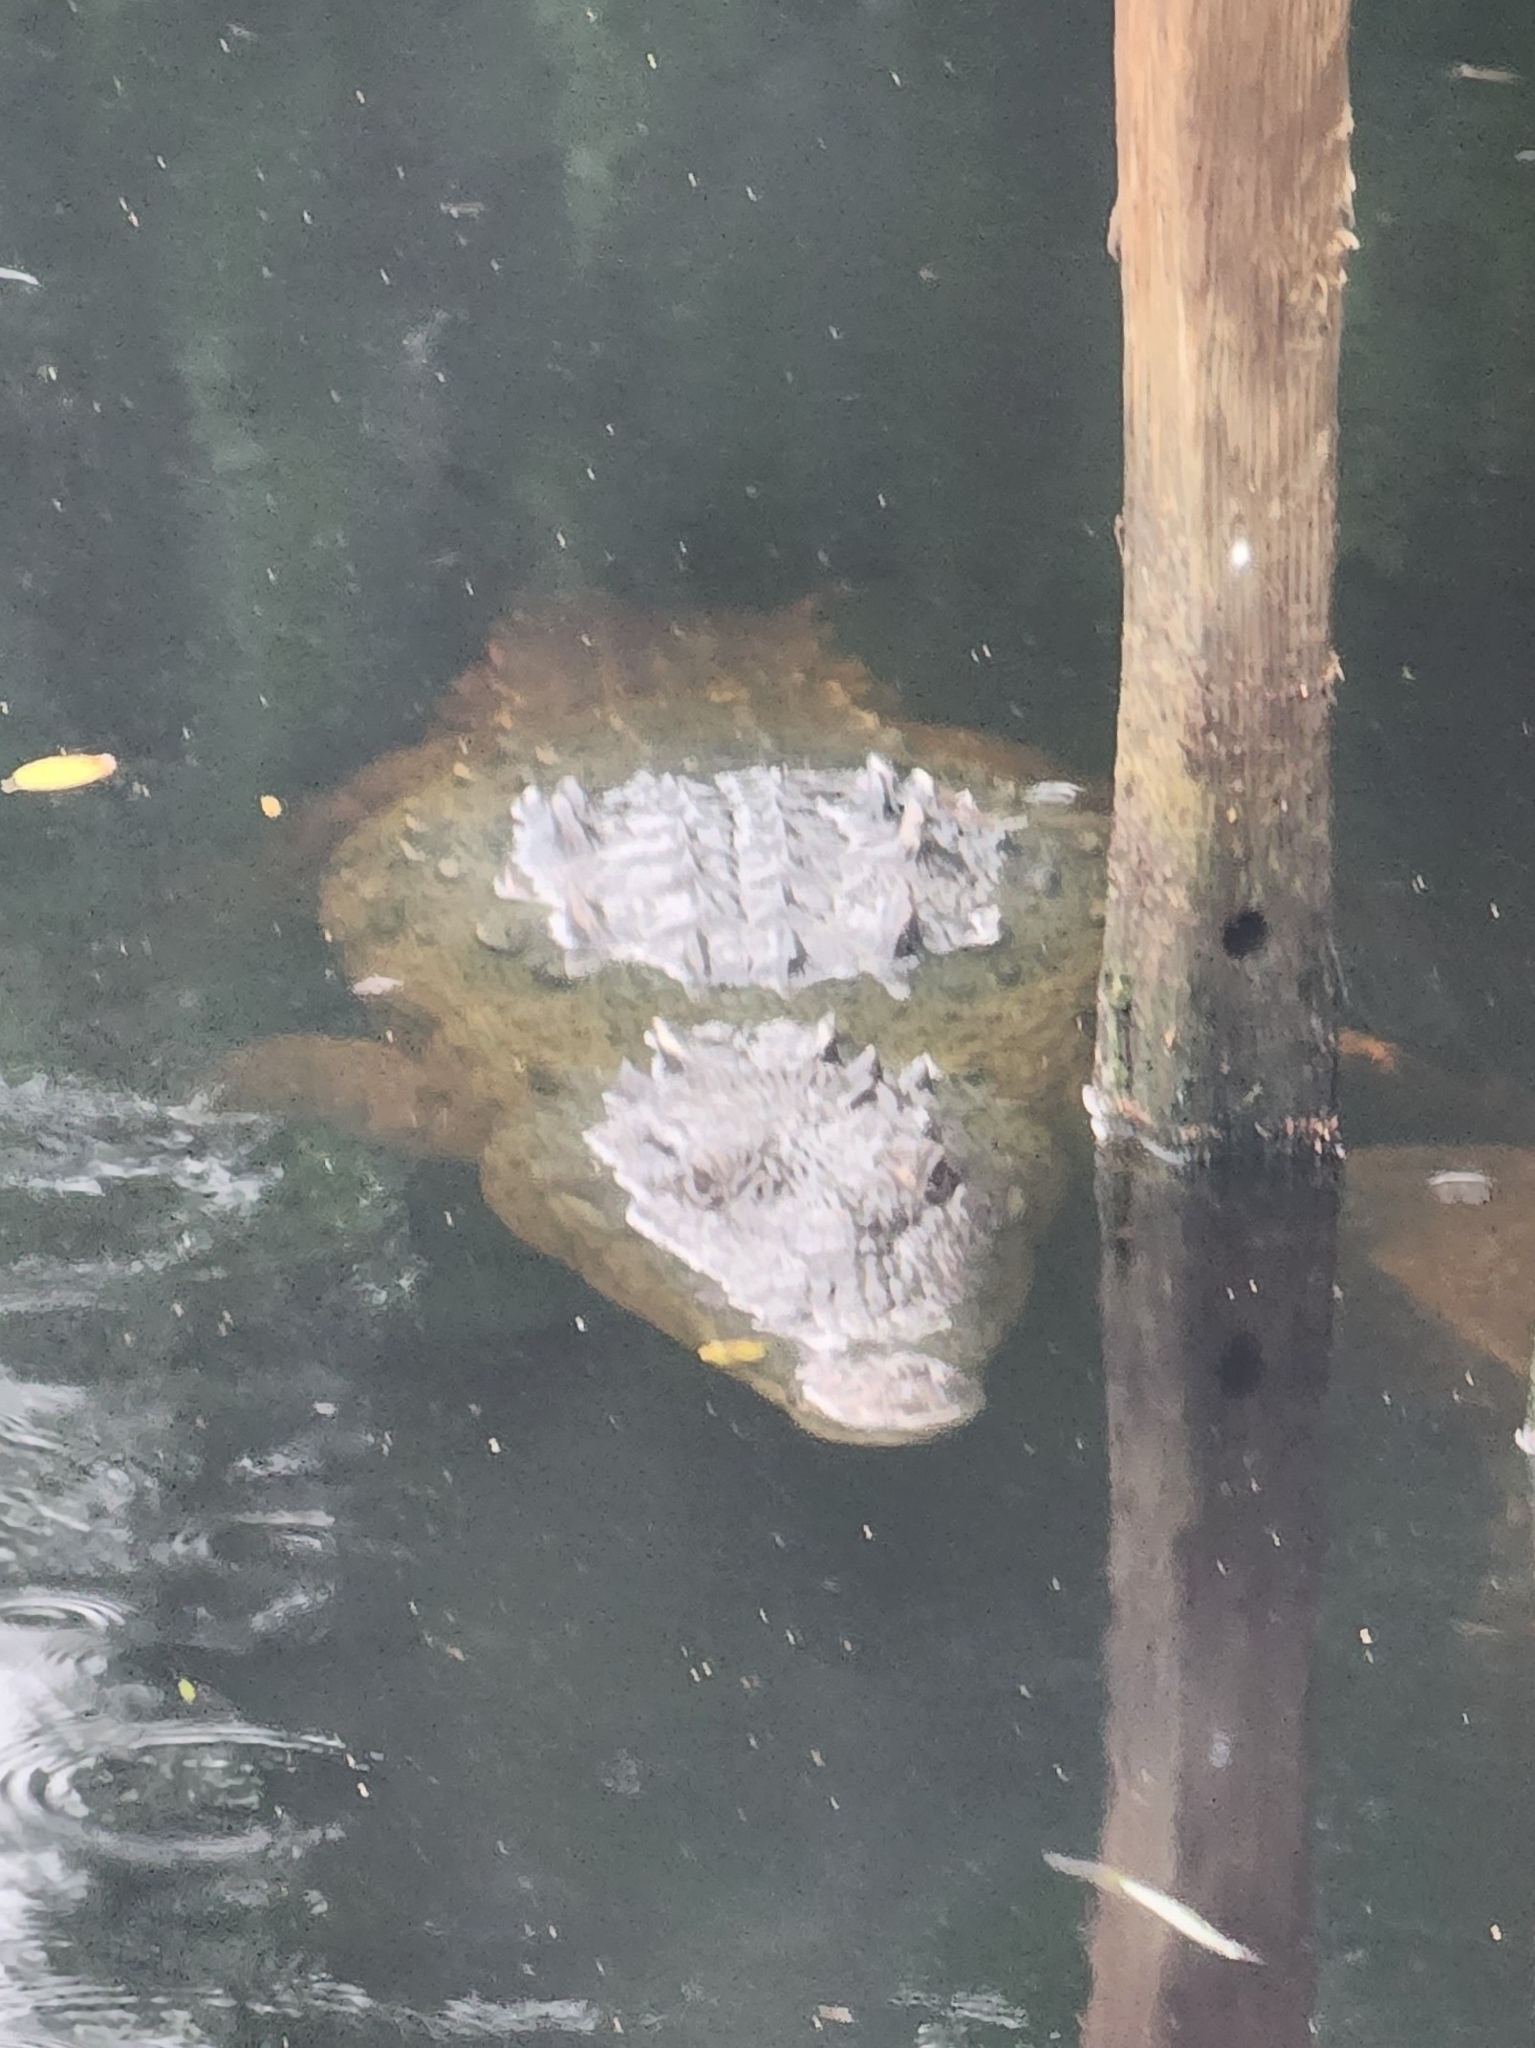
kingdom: Animalia
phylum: Chordata
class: Crocodylia
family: Crocodylidae
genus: Crocodylus
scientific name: Crocodylus acutus
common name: American crocodile
